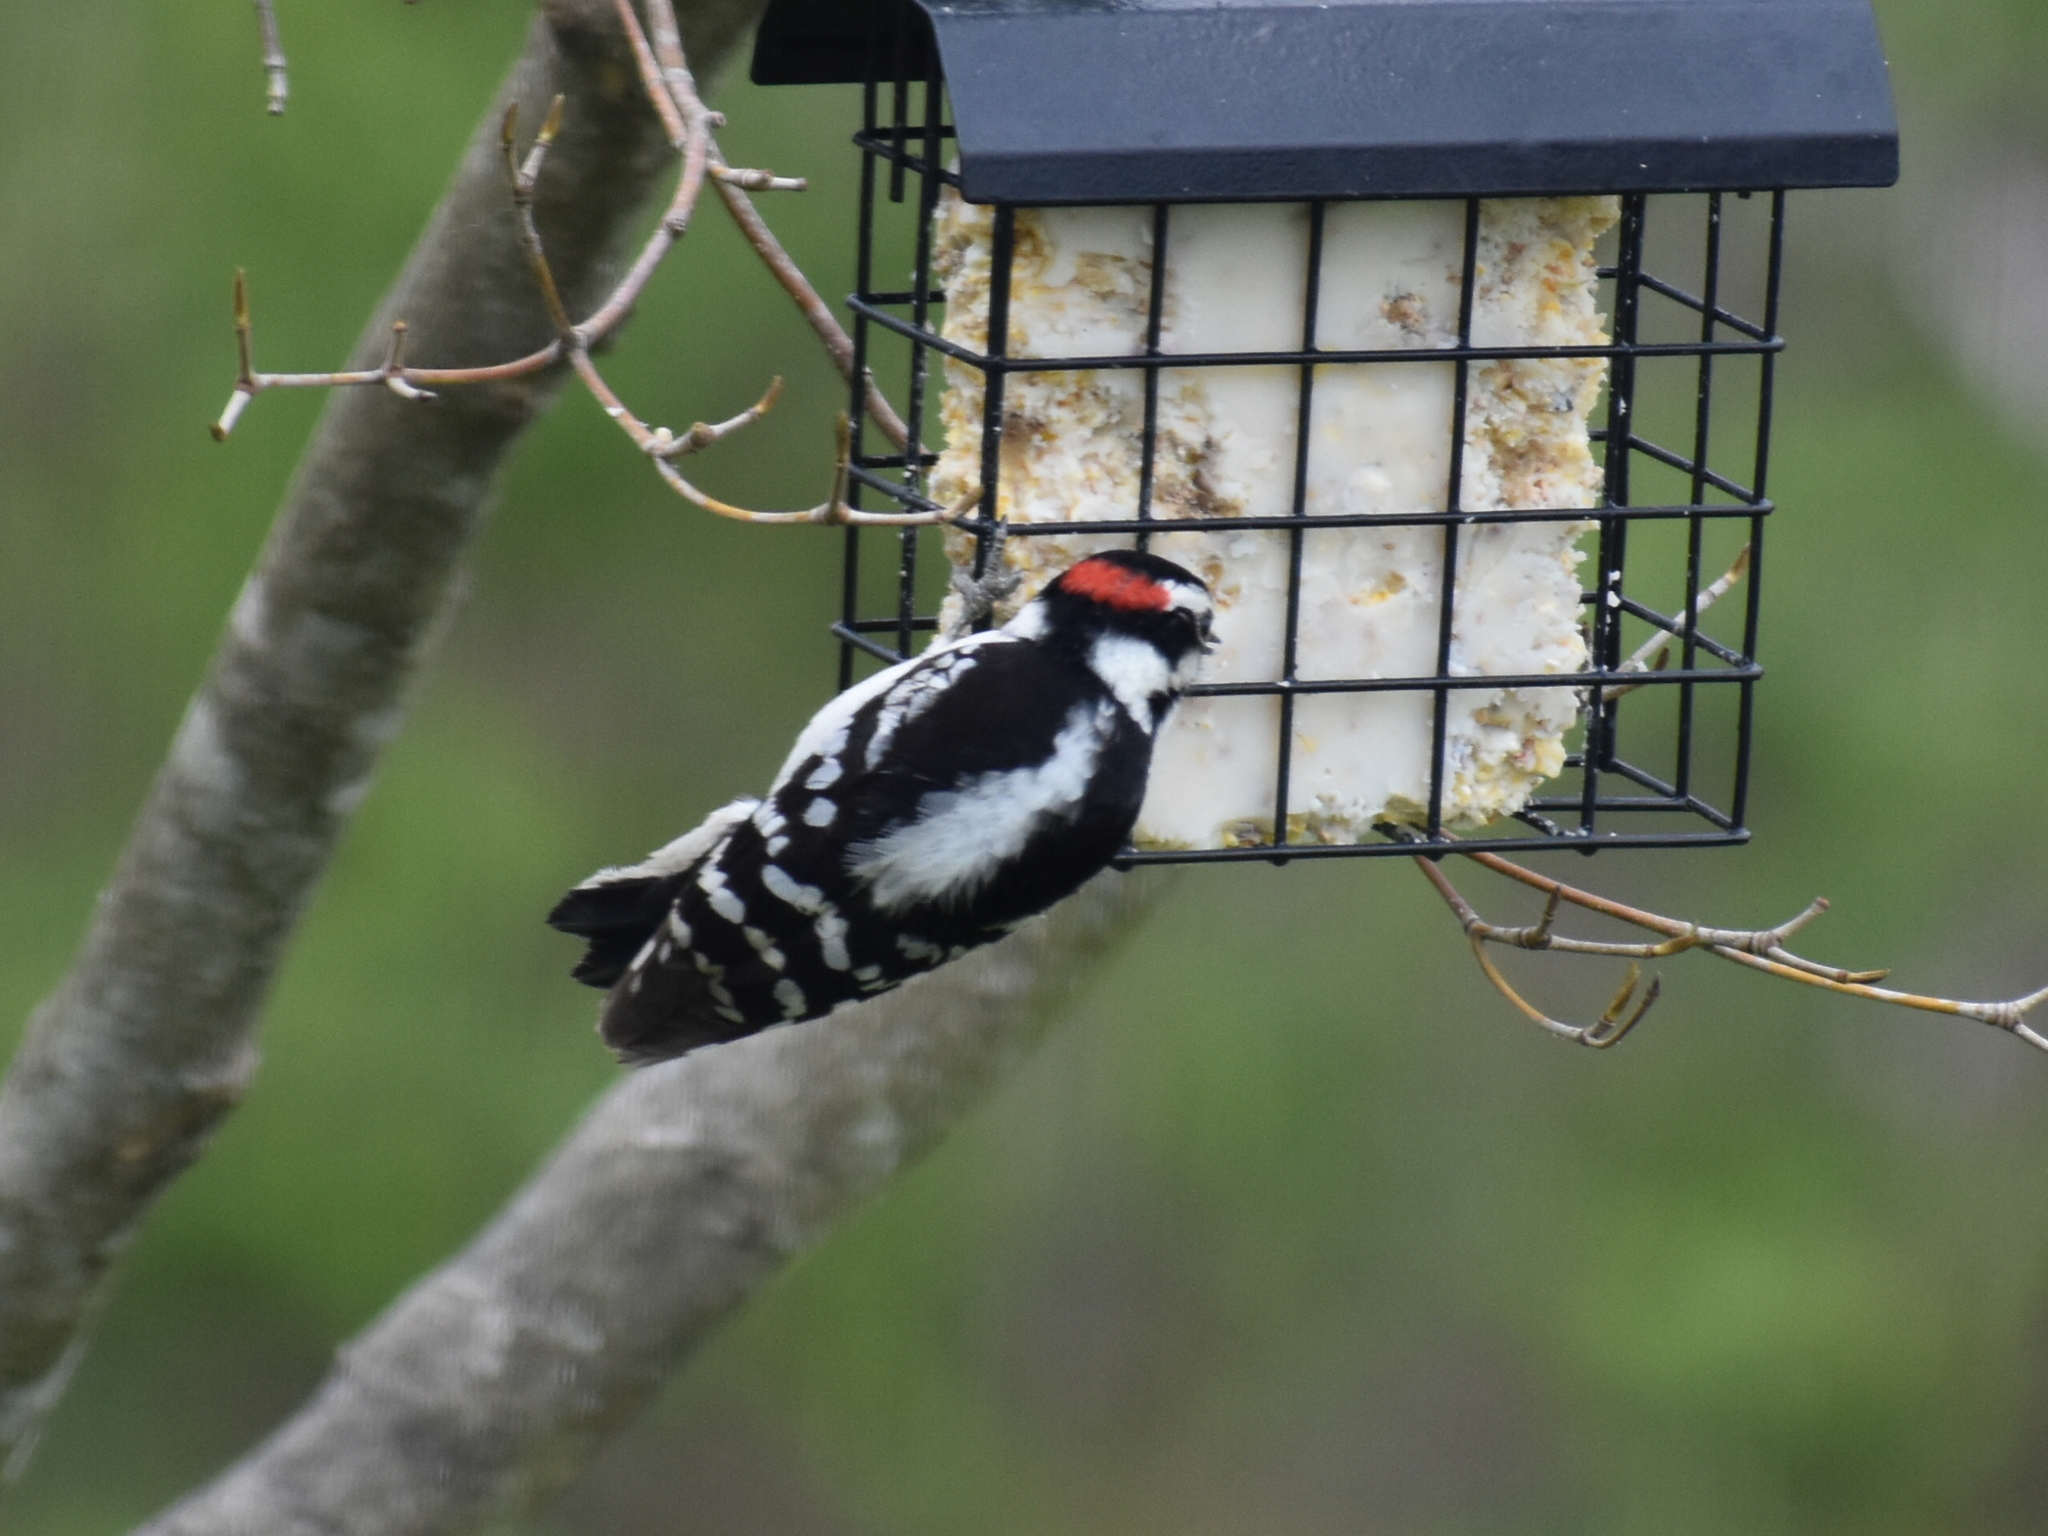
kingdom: Animalia
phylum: Chordata
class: Aves
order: Piciformes
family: Picidae
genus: Dryobates
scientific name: Dryobates pubescens
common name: Downy woodpecker
